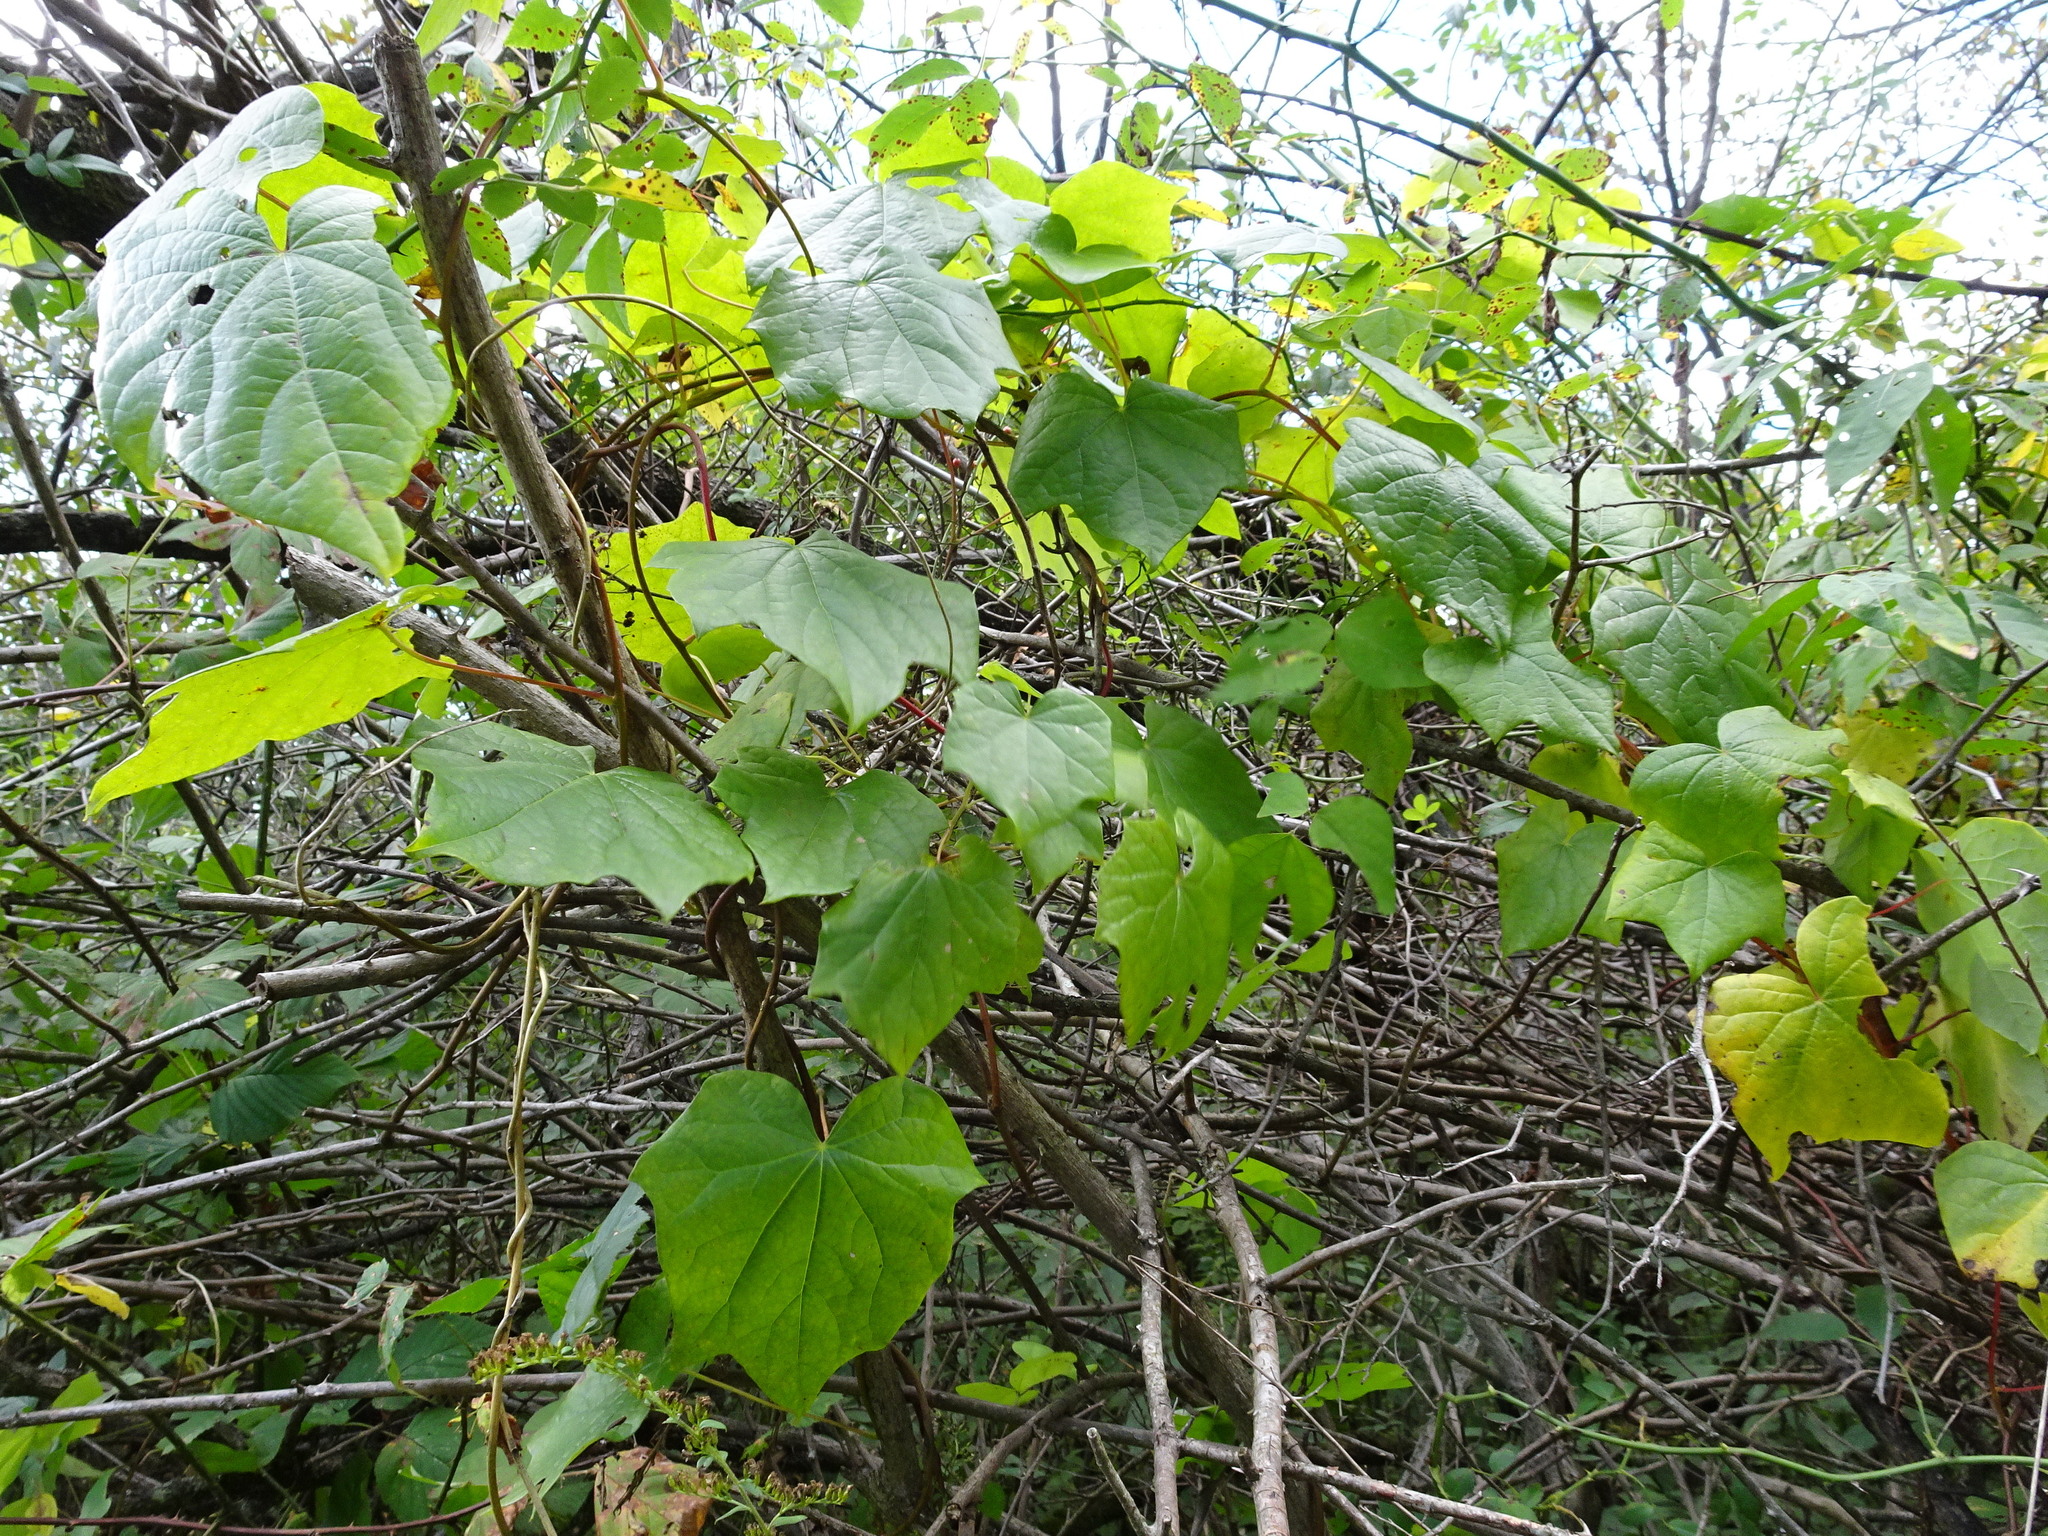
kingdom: Plantae
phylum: Tracheophyta
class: Magnoliopsida
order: Ranunculales
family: Menispermaceae
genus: Menispermum
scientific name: Menispermum canadense
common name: Moonseed
